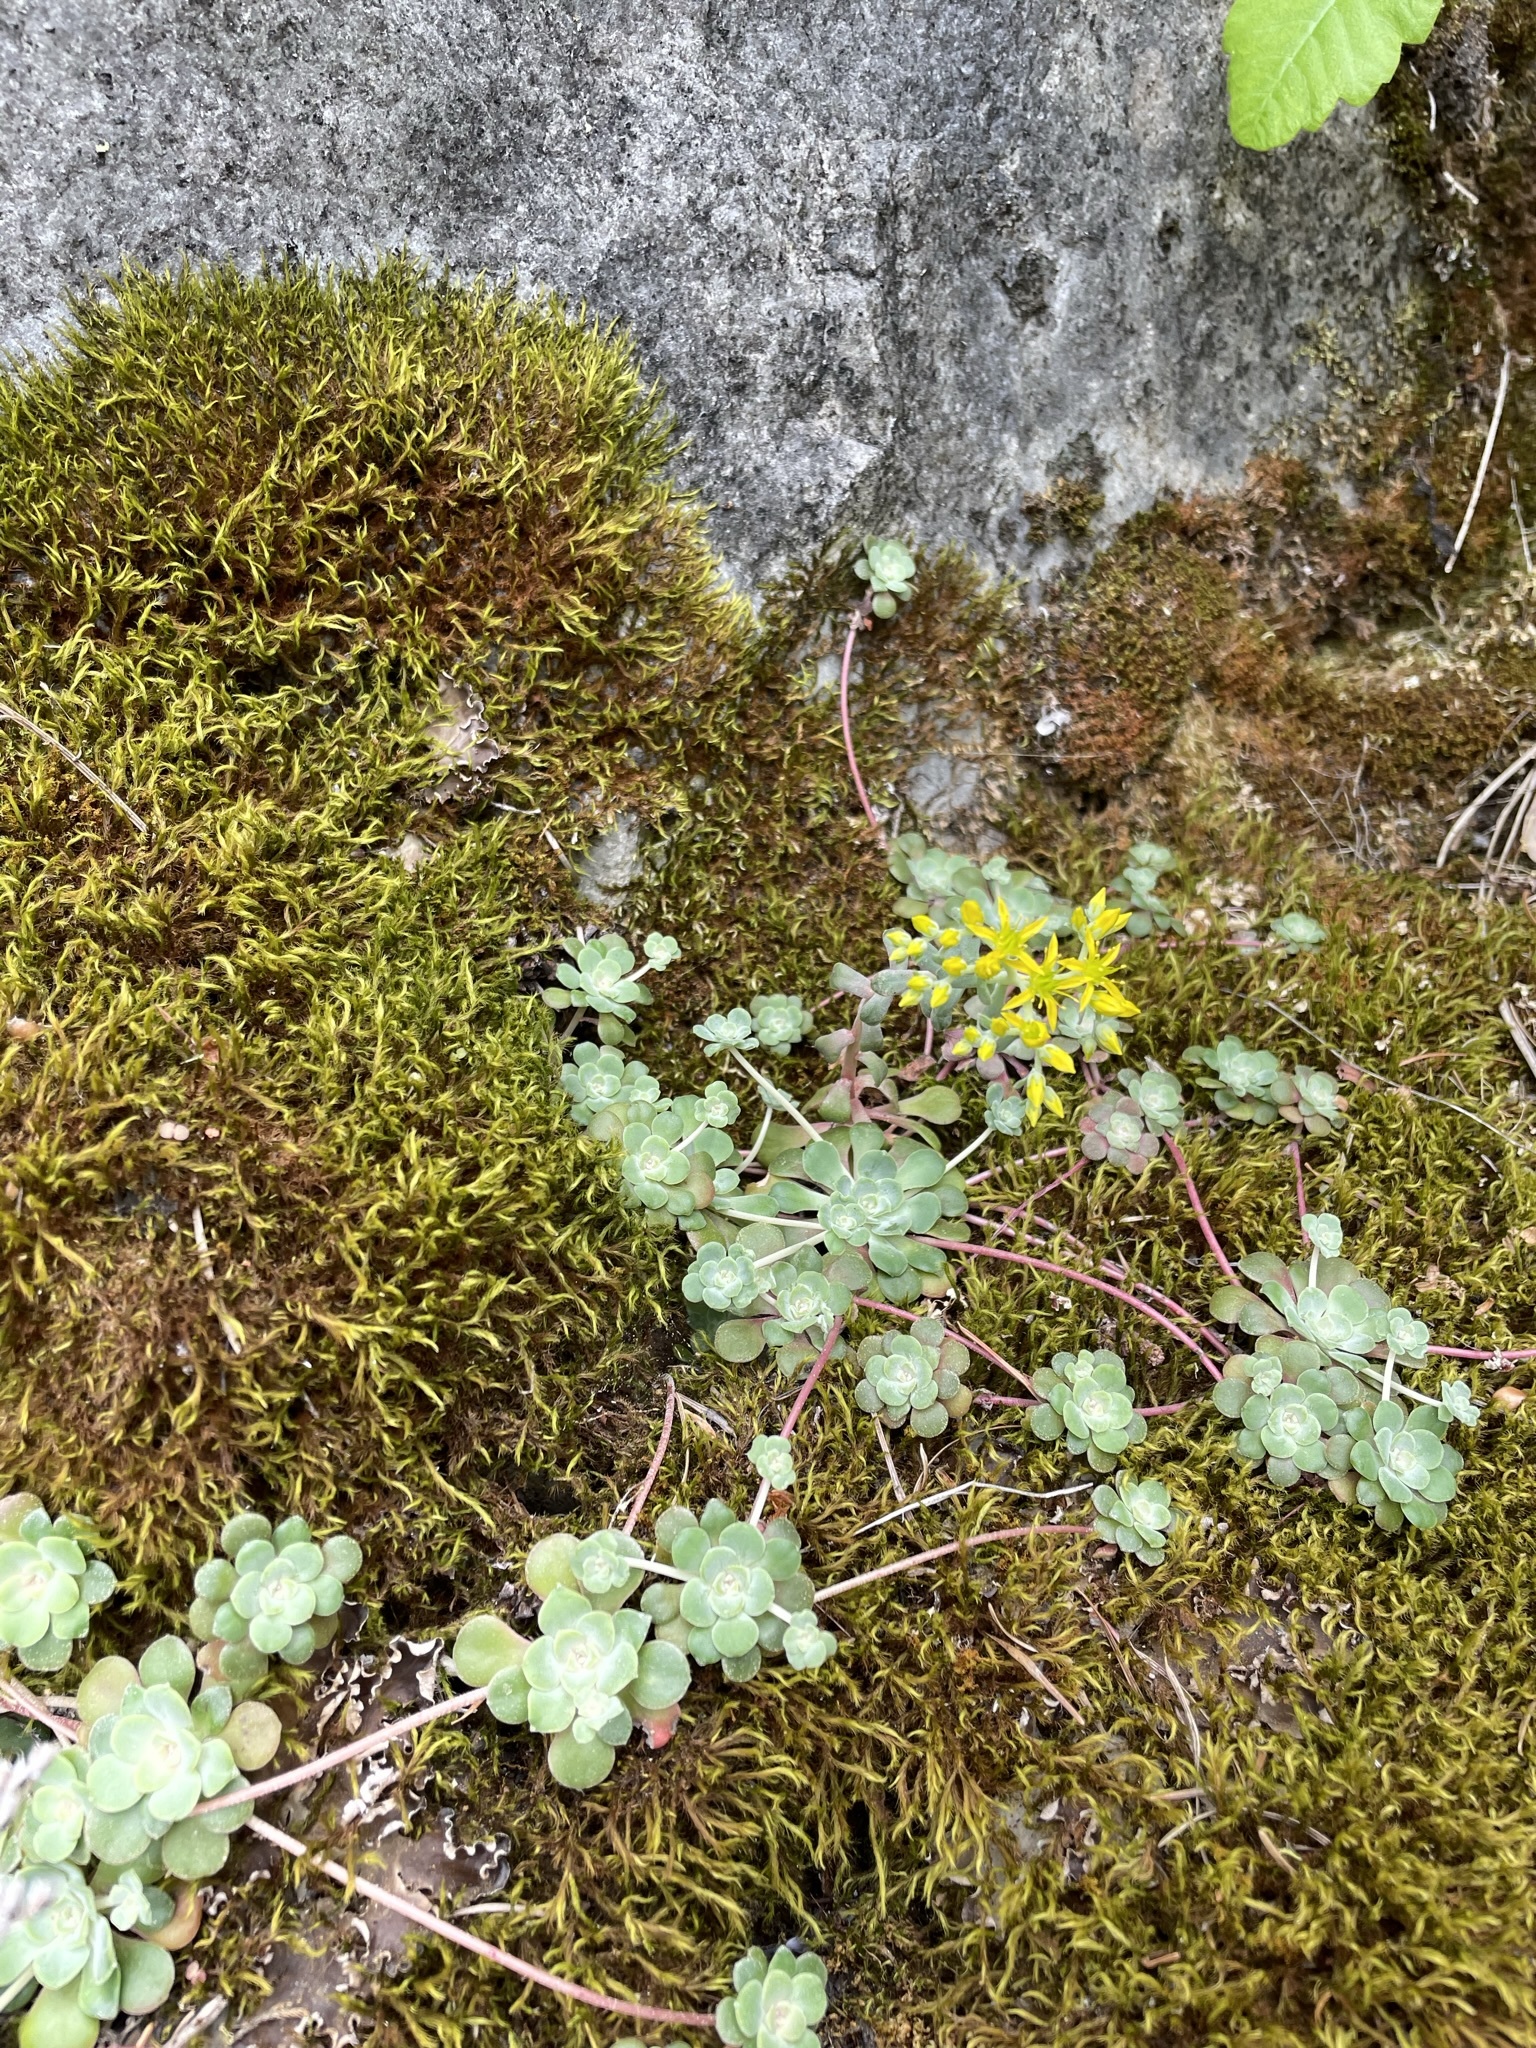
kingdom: Plantae
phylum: Tracheophyta
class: Magnoliopsida
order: Saxifragales
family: Crassulaceae
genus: Sedum
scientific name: Sedum spathulifolium
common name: Colorado stonecrop
